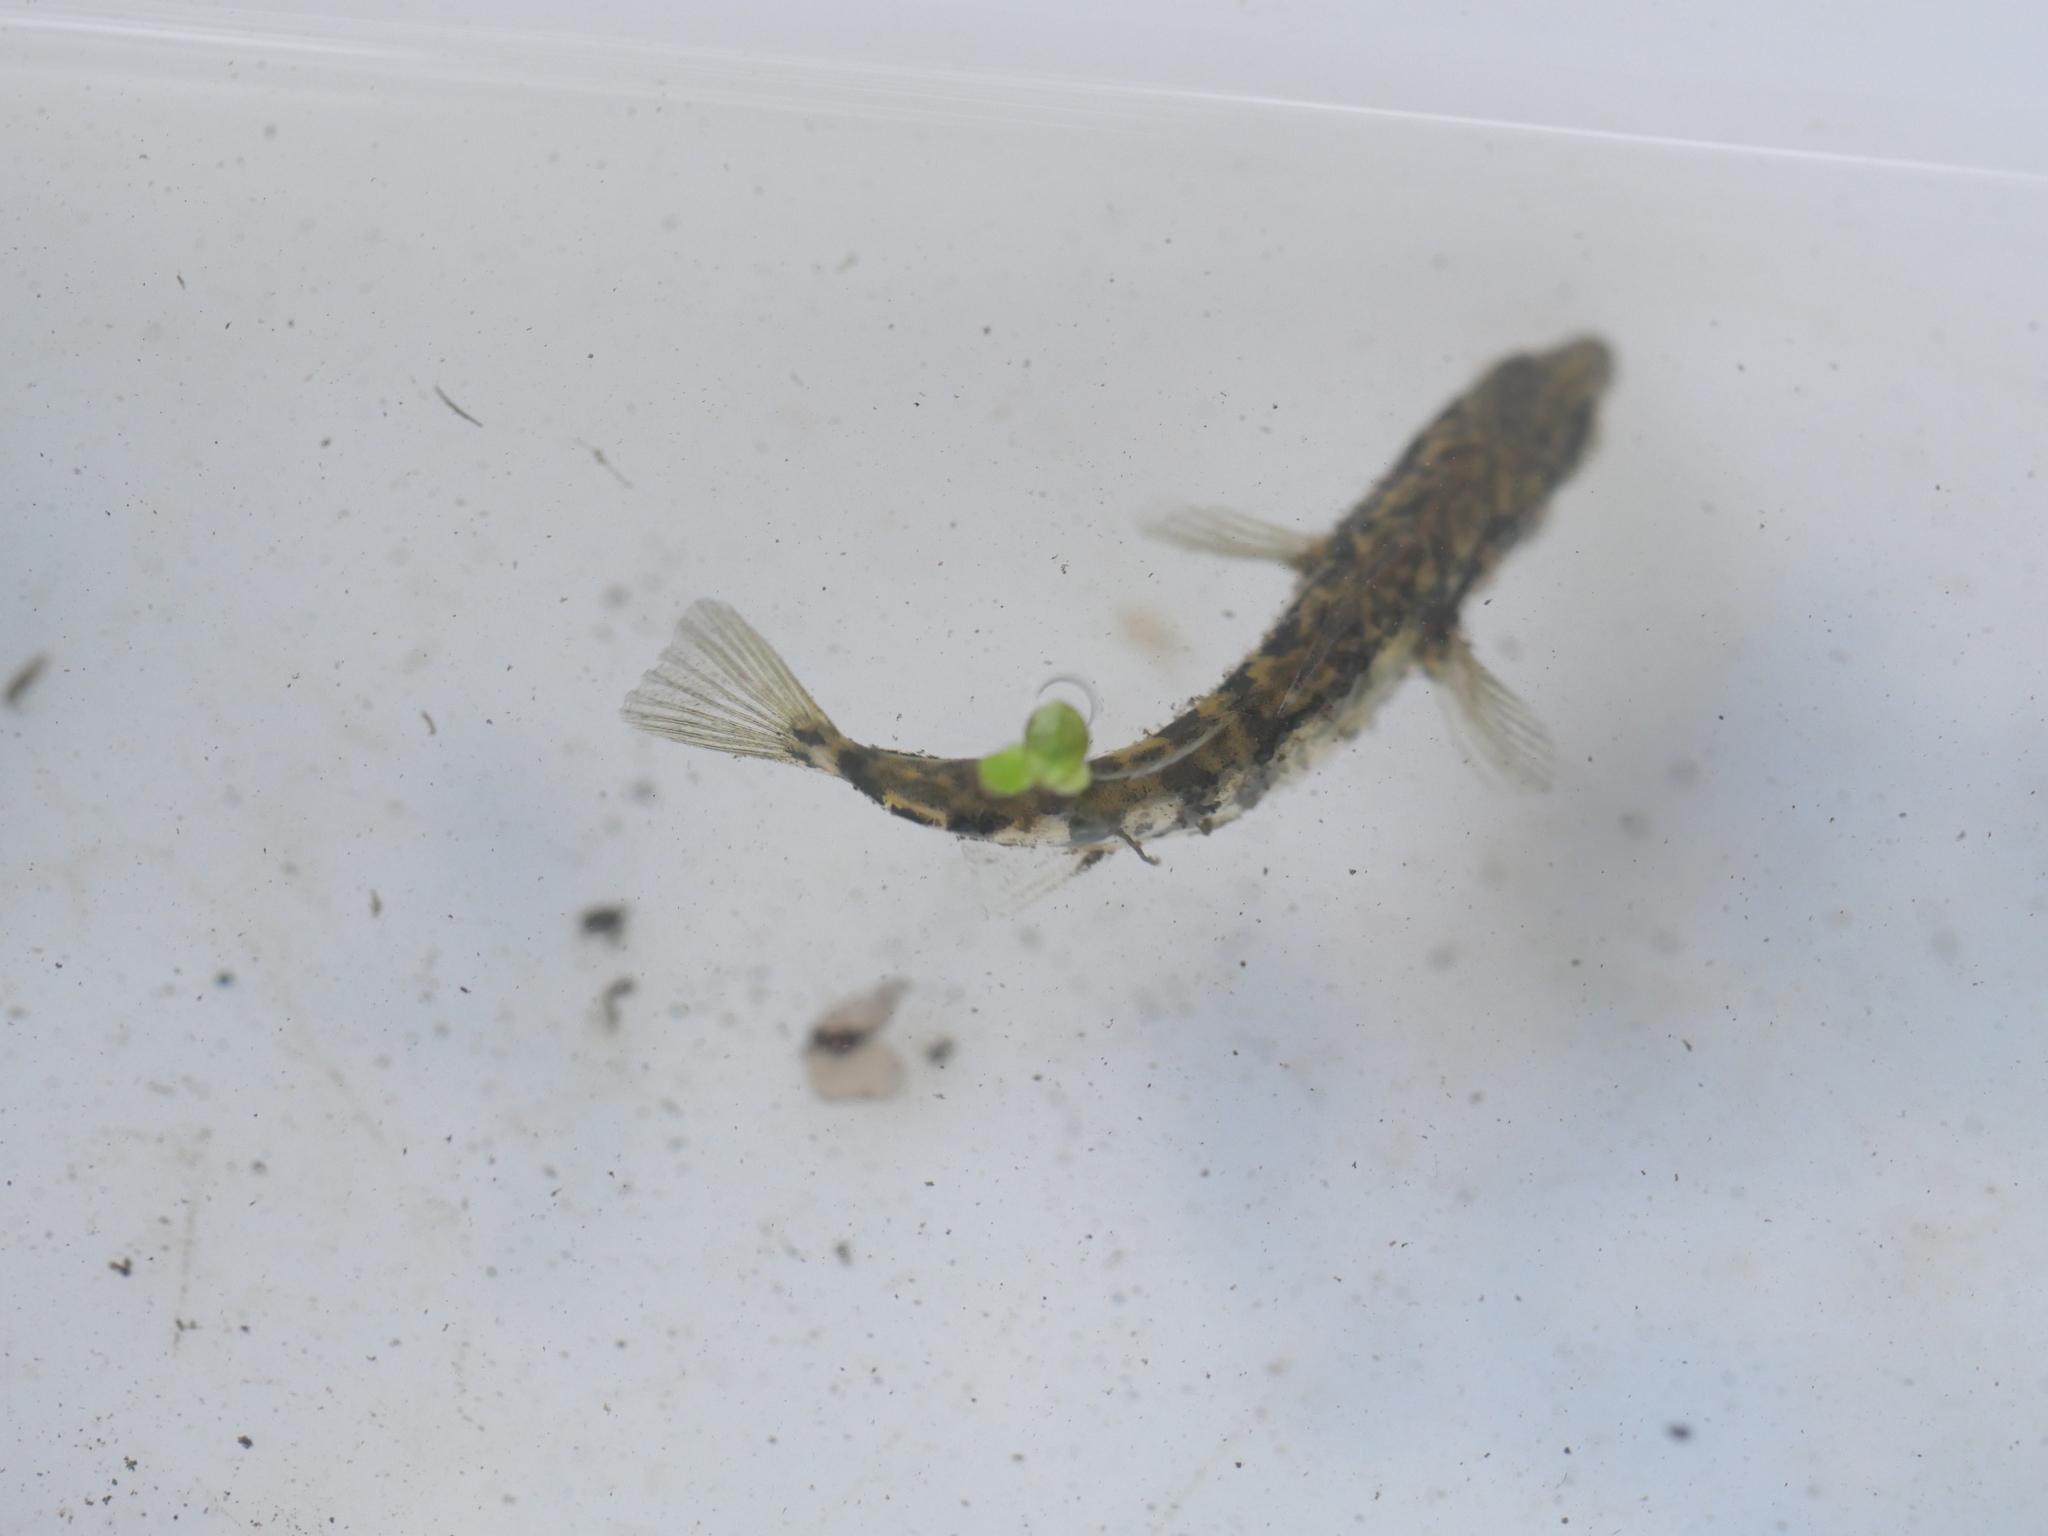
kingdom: Animalia
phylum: Chordata
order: Gasterosteiformes
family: Gasterosteidae
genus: Gasterosteus
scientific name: Gasterosteus aculeatus
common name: Three-spined stickleback
